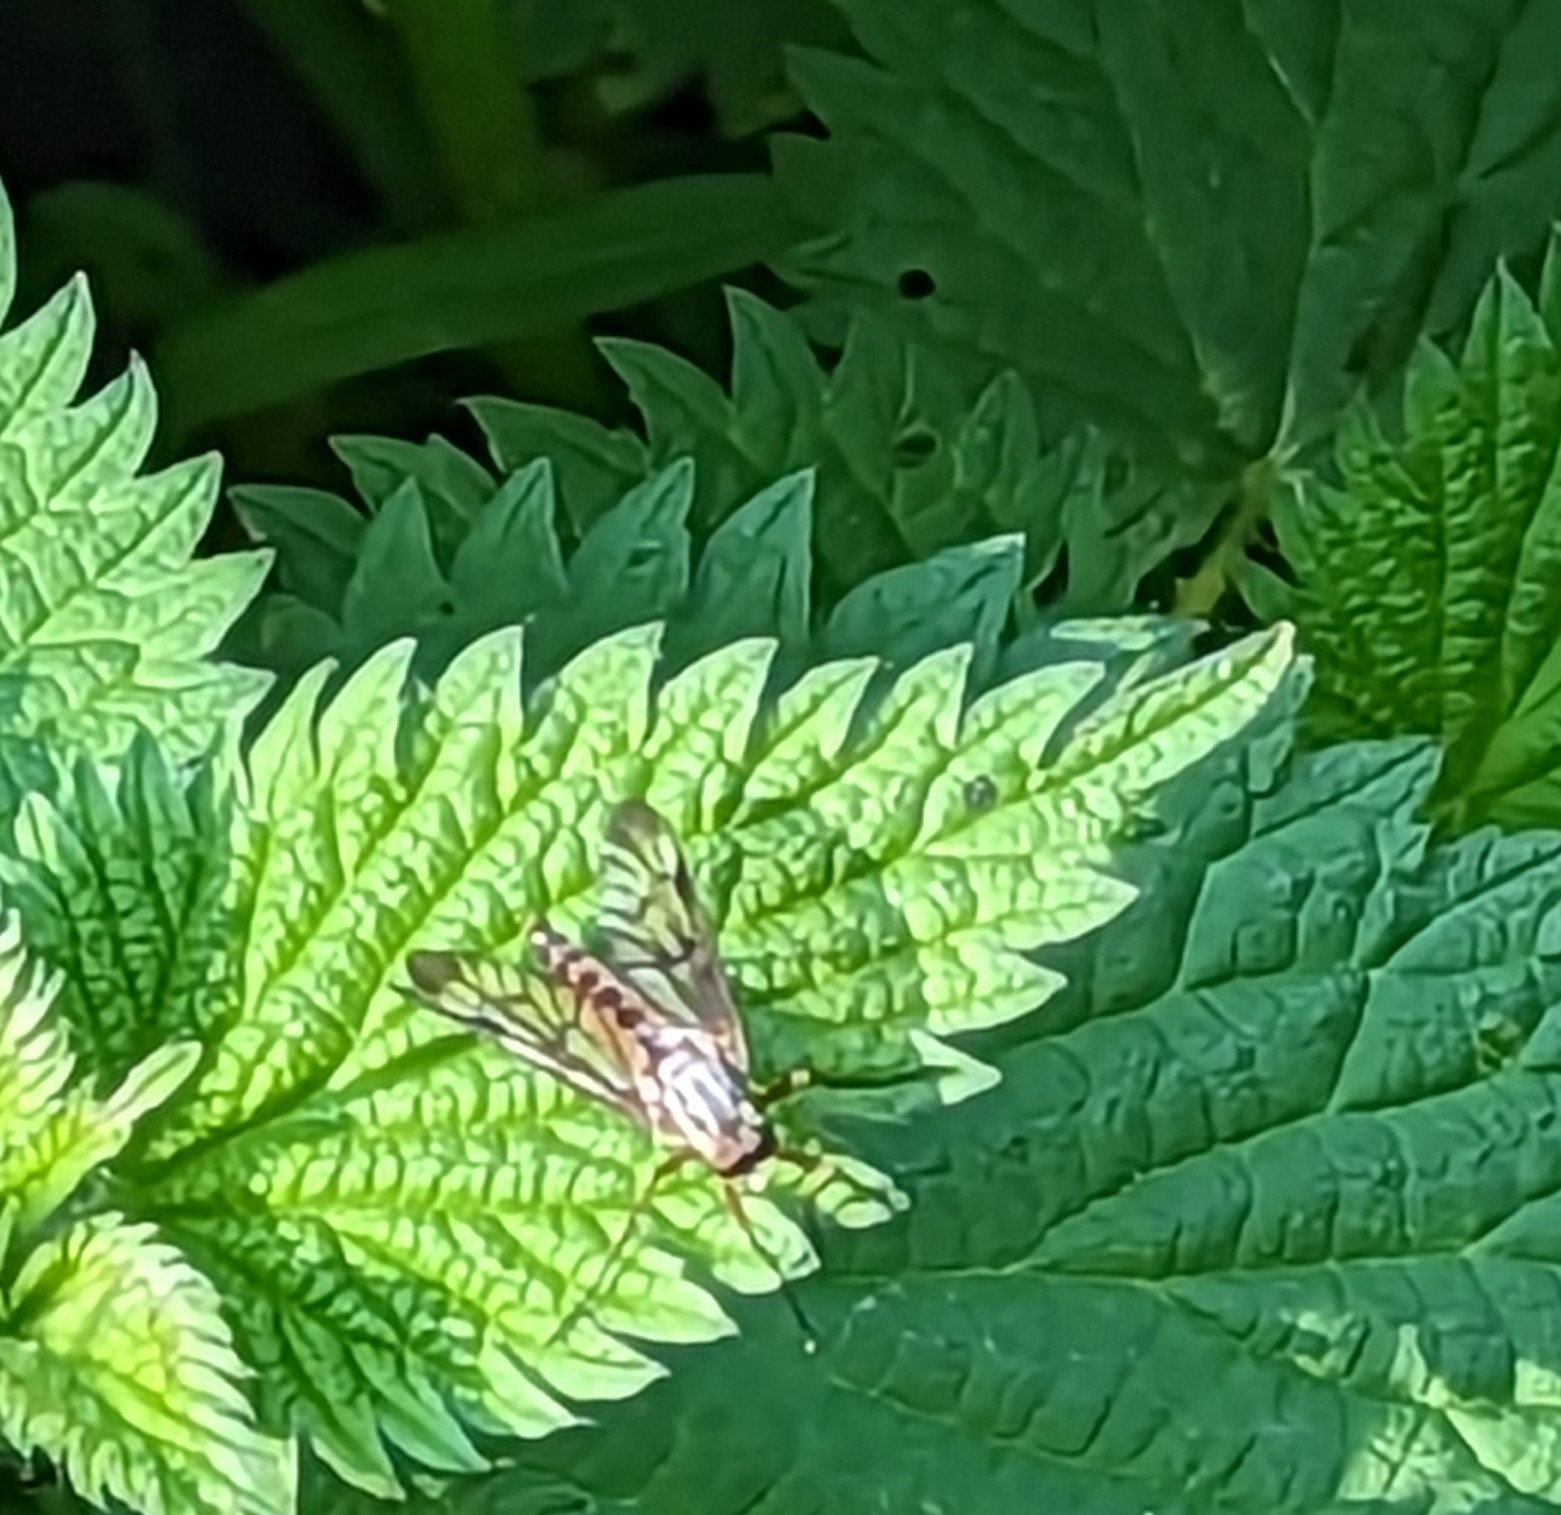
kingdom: Animalia
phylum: Arthropoda
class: Insecta
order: Diptera
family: Rhagionidae
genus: Rhagio
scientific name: Rhagio scolopacea
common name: Downlooker snipefly
